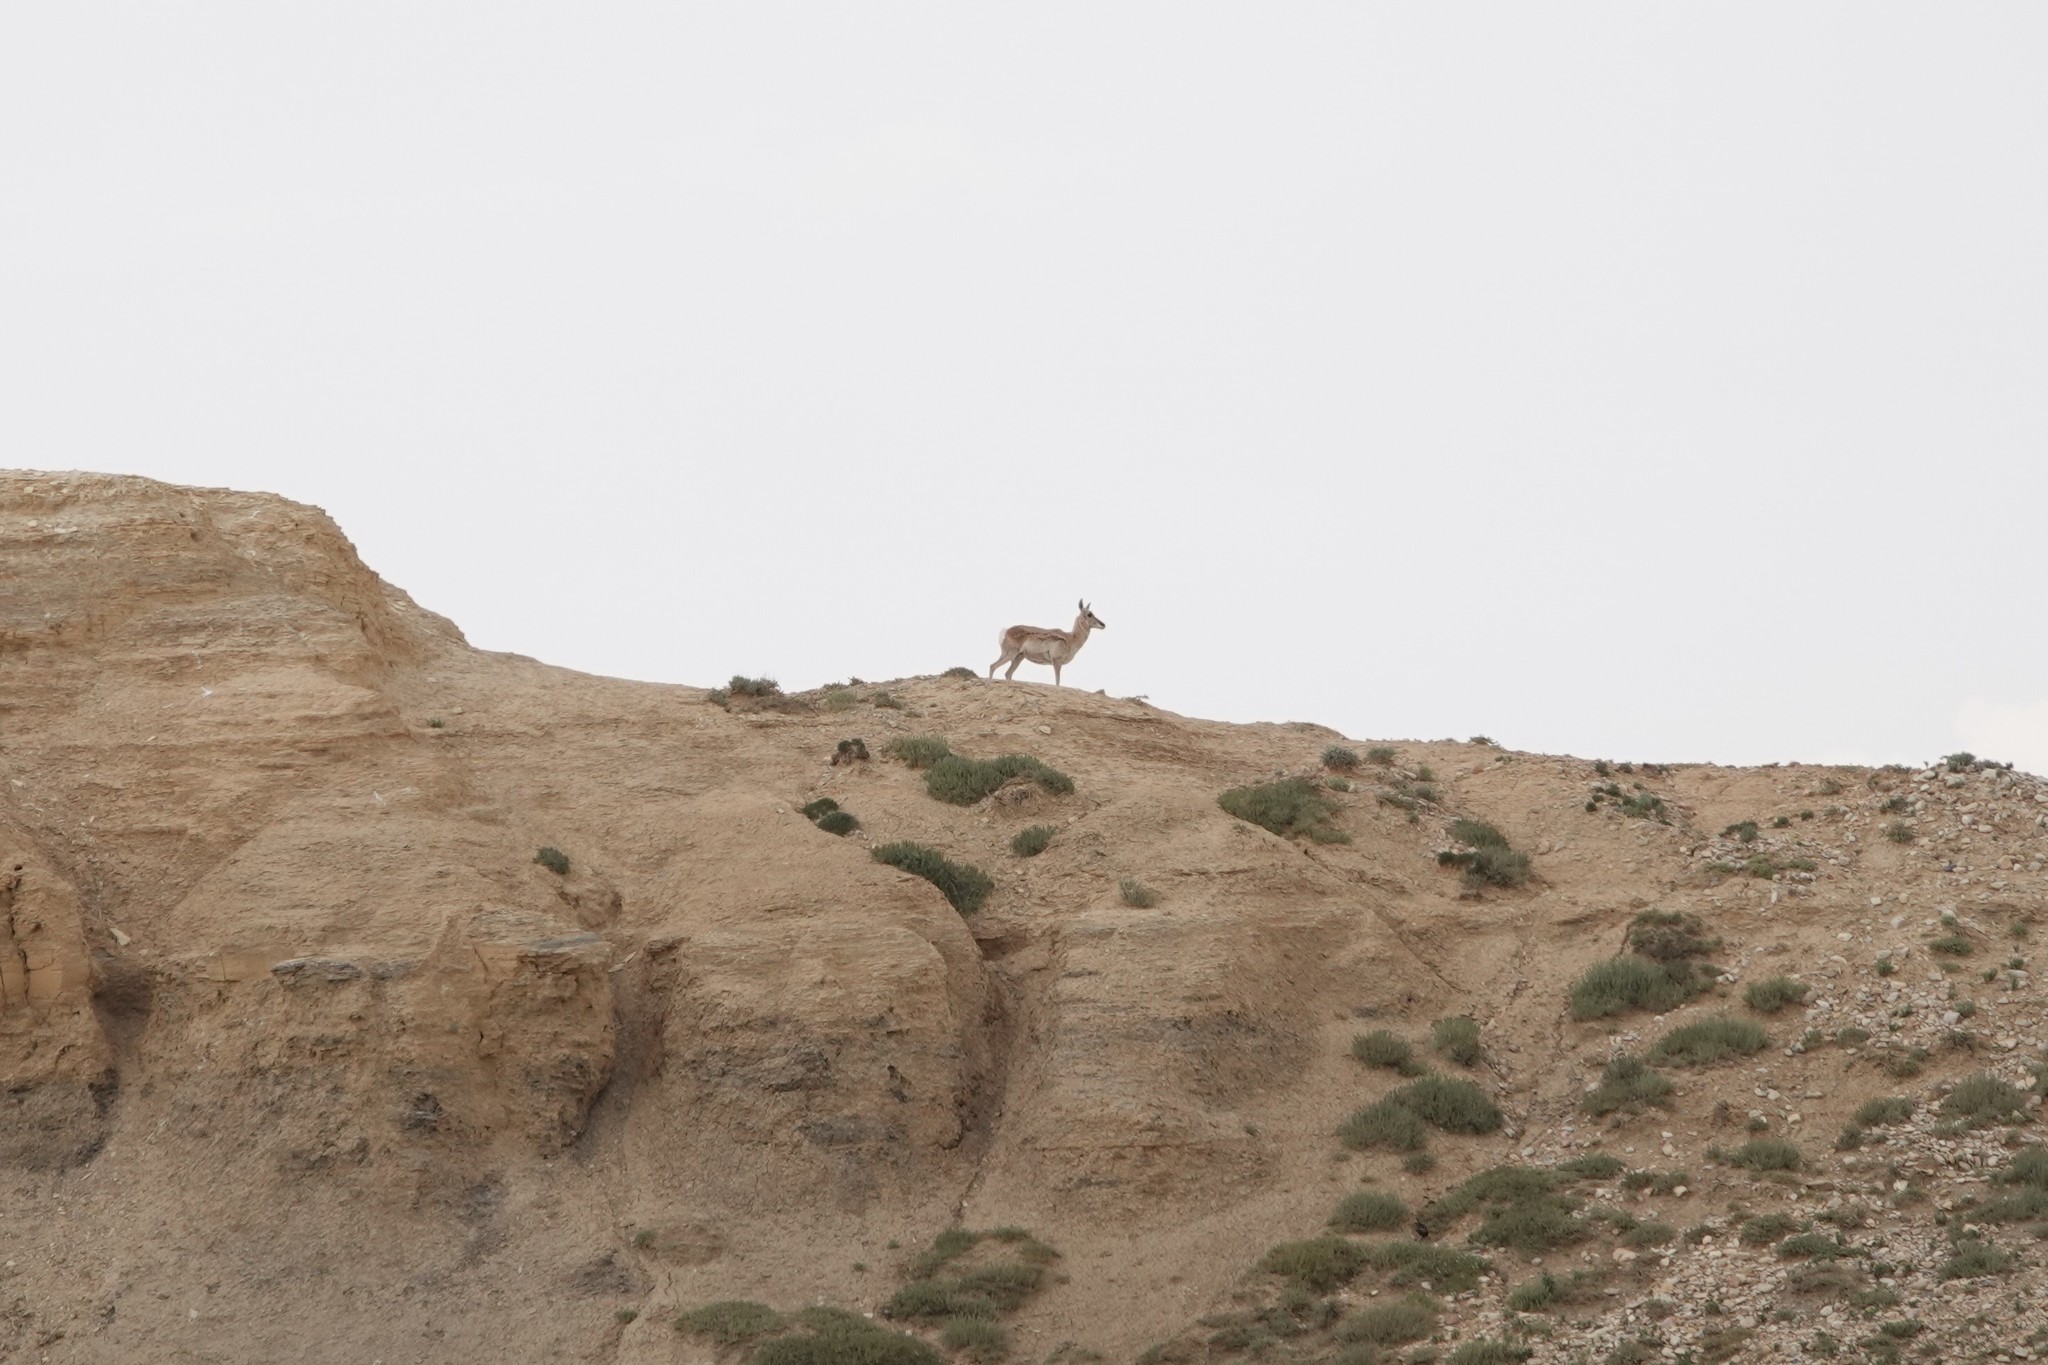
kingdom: Animalia
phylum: Chordata
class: Mammalia
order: Artiodactyla
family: Antilocapridae
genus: Antilocapra
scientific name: Antilocapra americana
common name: Pronghorn
